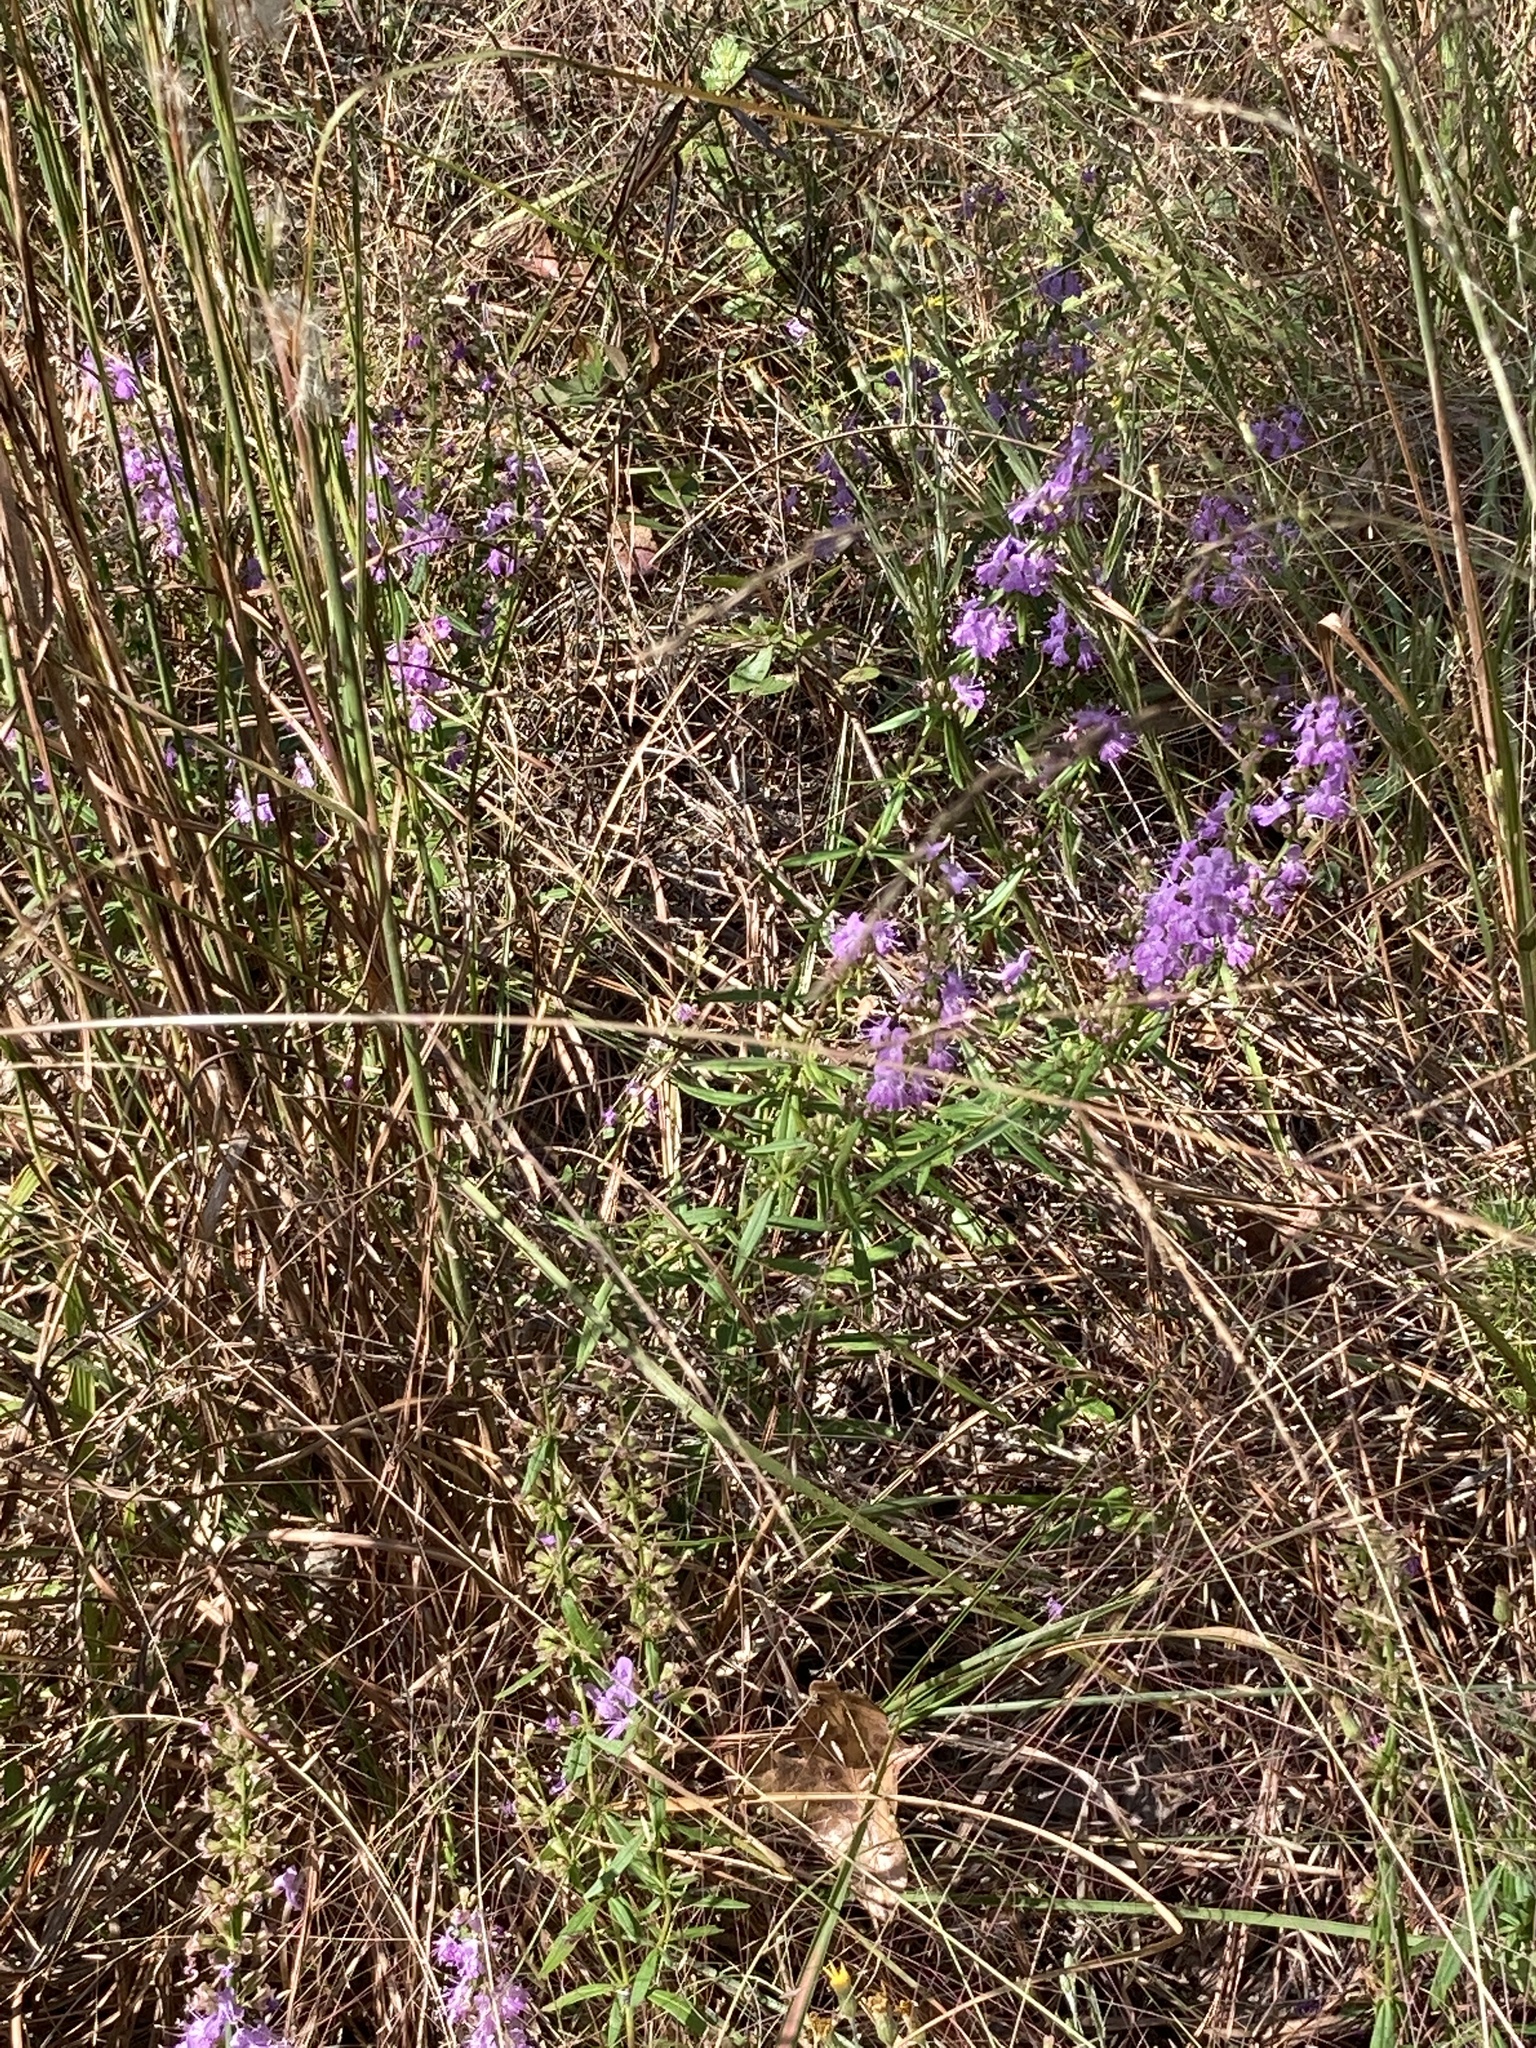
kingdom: Plantae
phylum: Tracheophyta
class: Magnoliopsida
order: Lamiales
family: Lamiaceae
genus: Dicerandra
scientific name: Dicerandra densiflora
